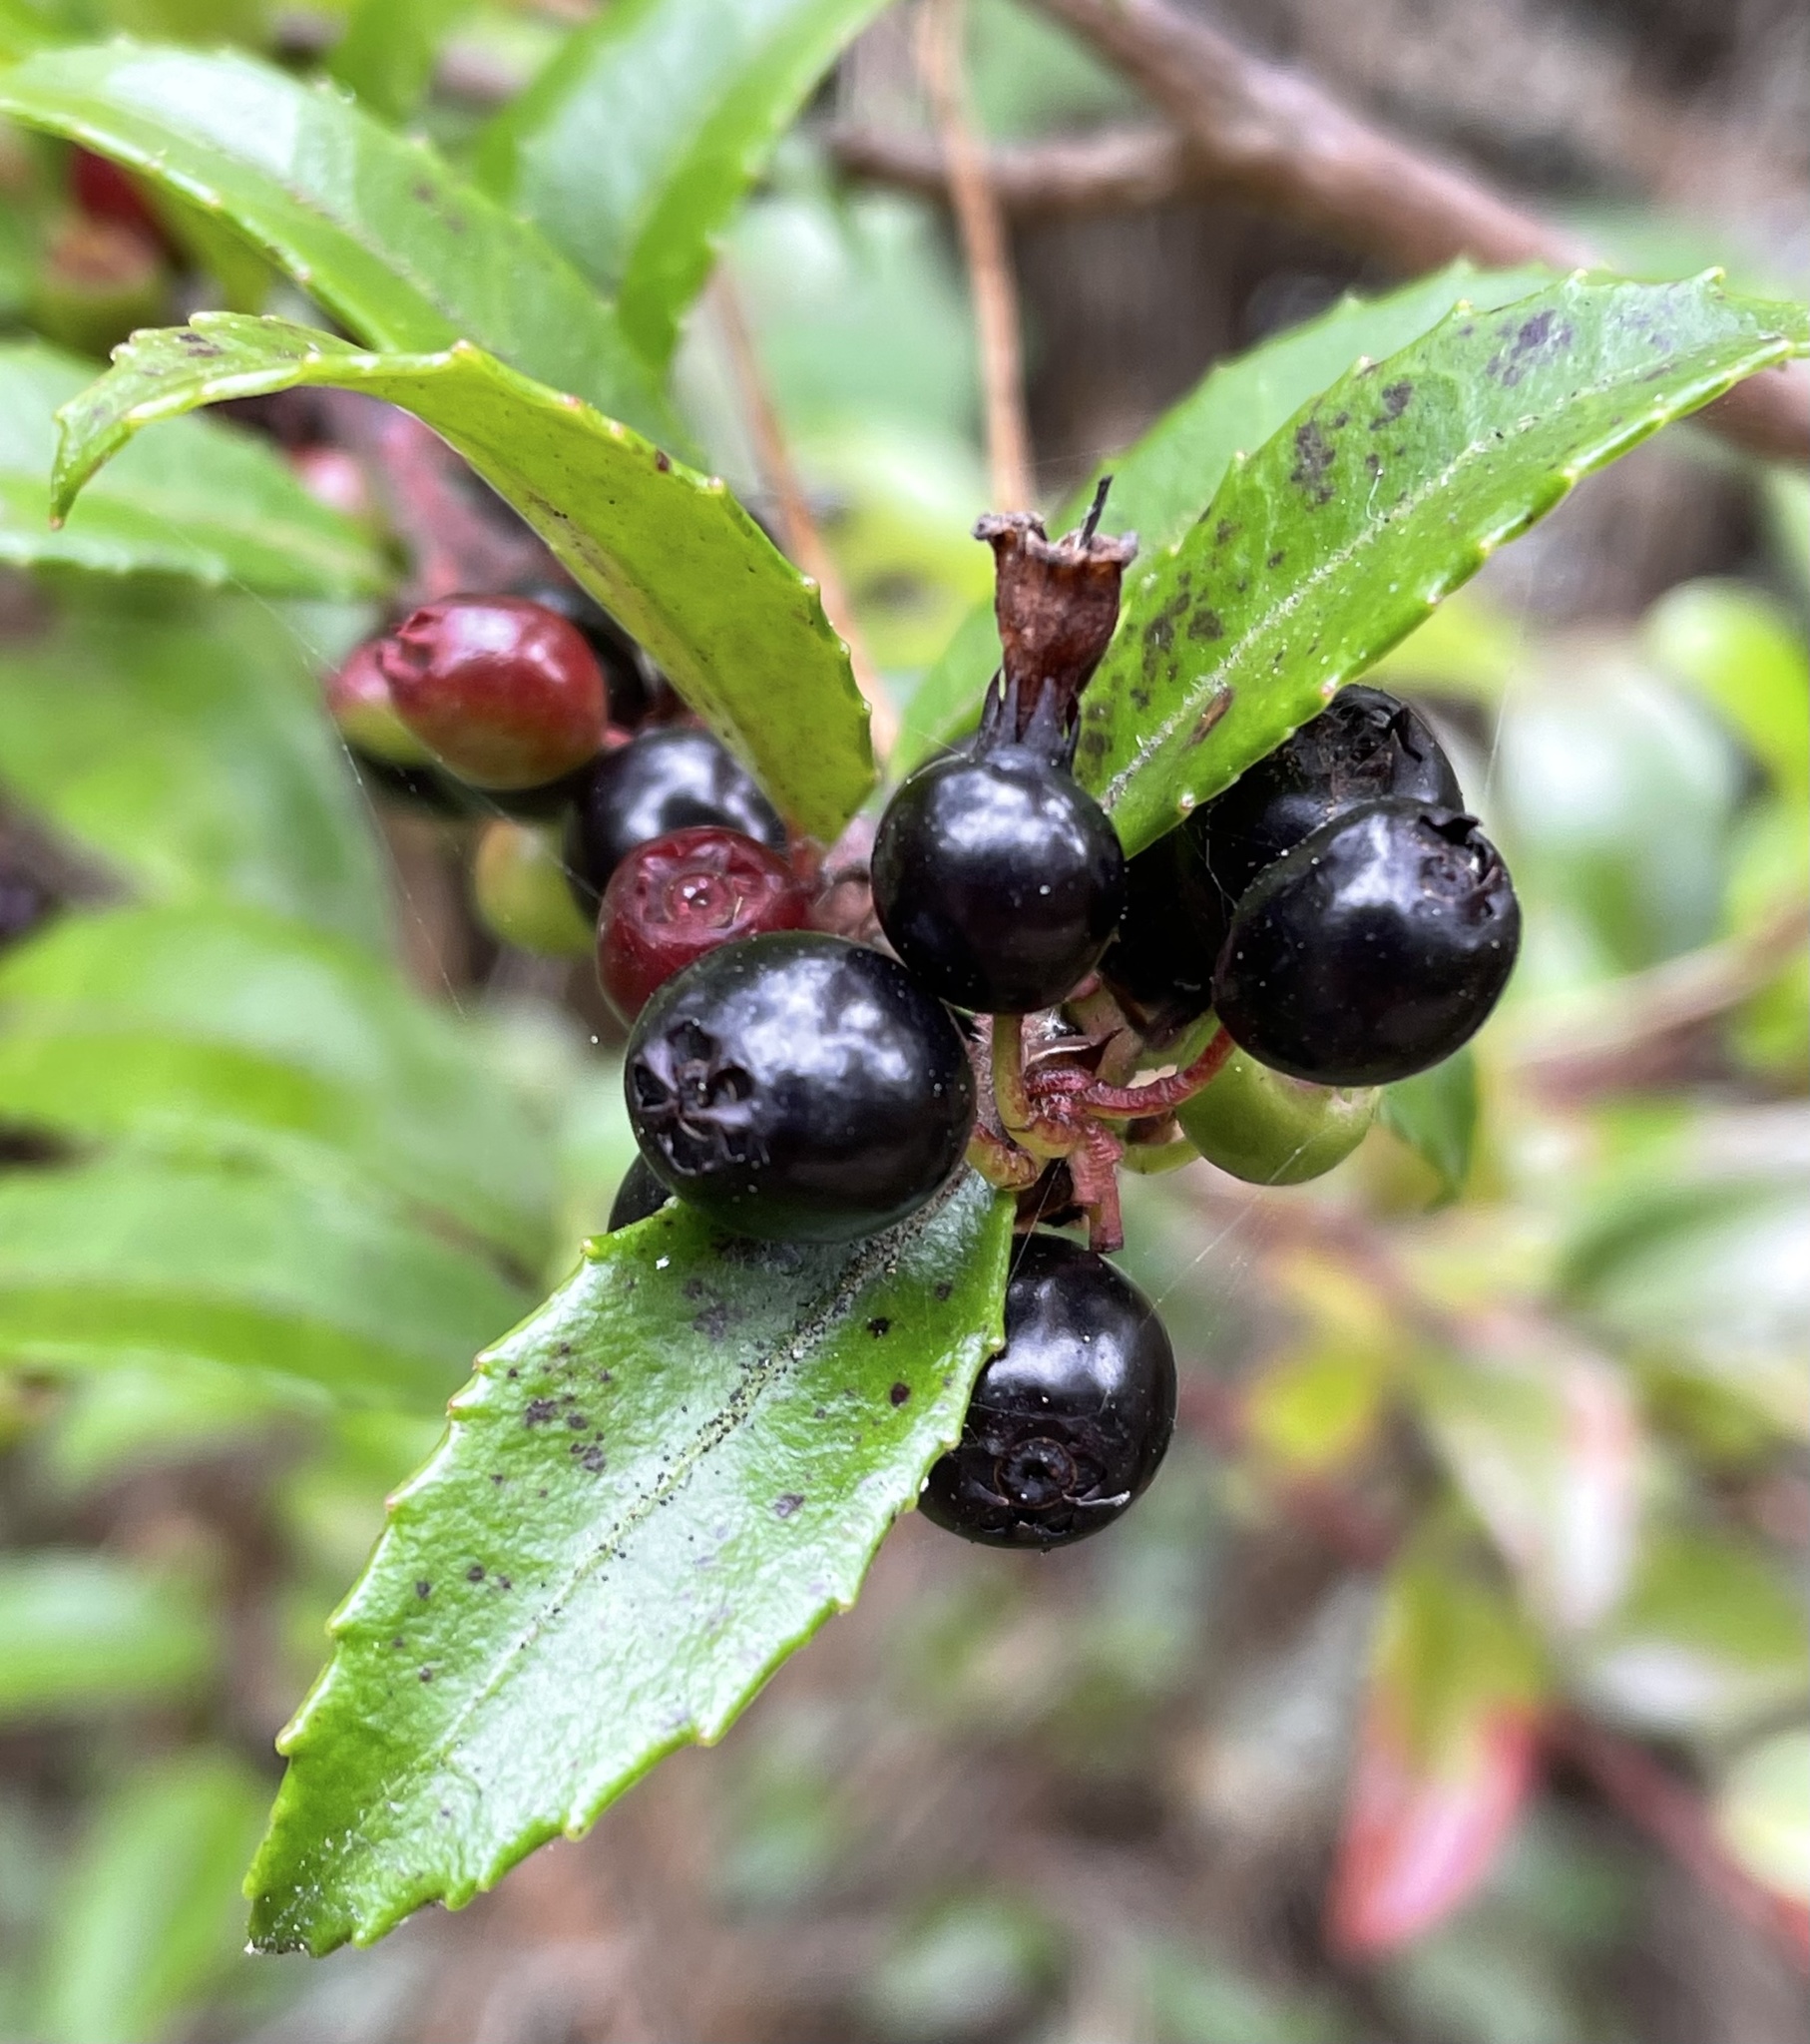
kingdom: Plantae
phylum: Tracheophyta
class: Magnoliopsida
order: Ericales
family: Ericaceae
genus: Vaccinium
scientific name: Vaccinium ovatum
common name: California-huckleberry
